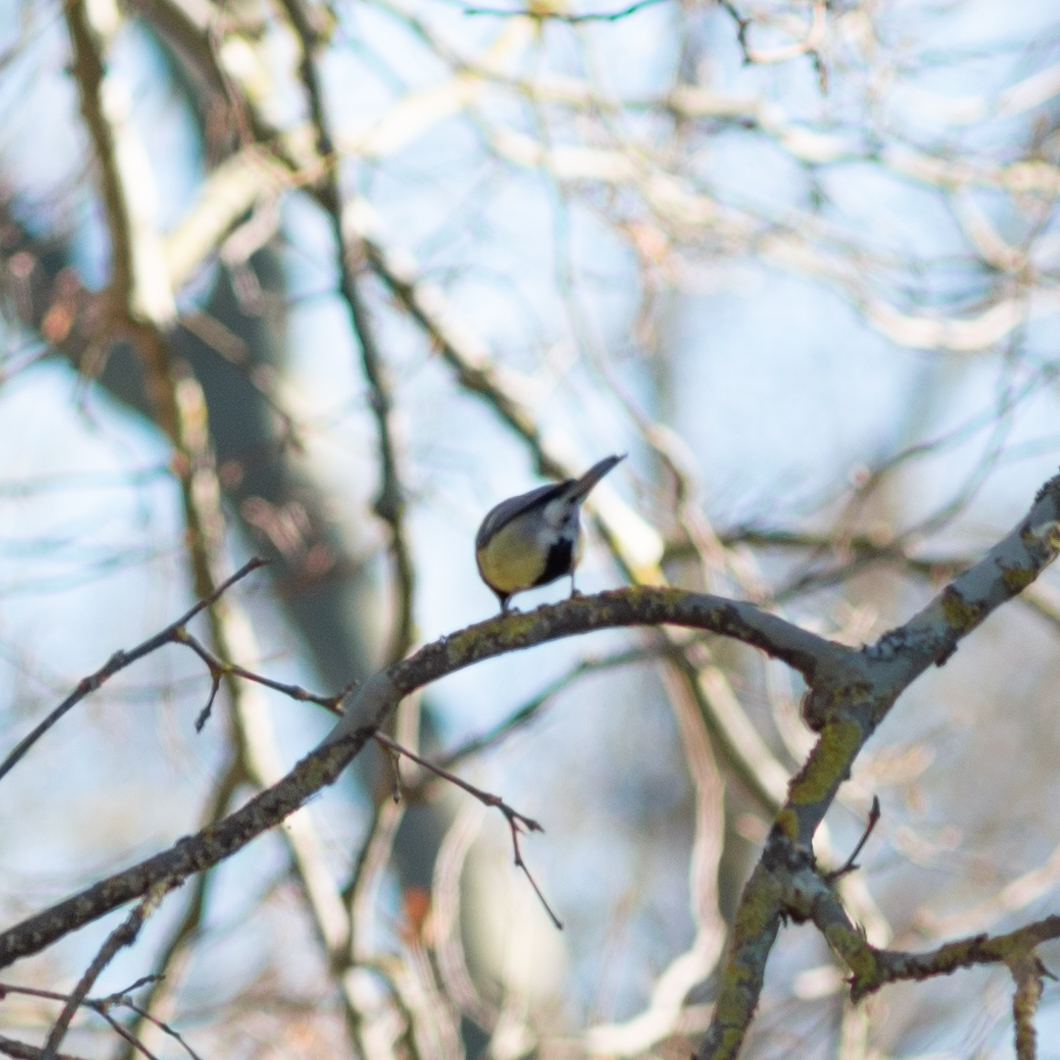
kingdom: Animalia
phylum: Chordata
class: Aves
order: Passeriformes
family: Paridae
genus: Parus
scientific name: Parus major
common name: Great tit
